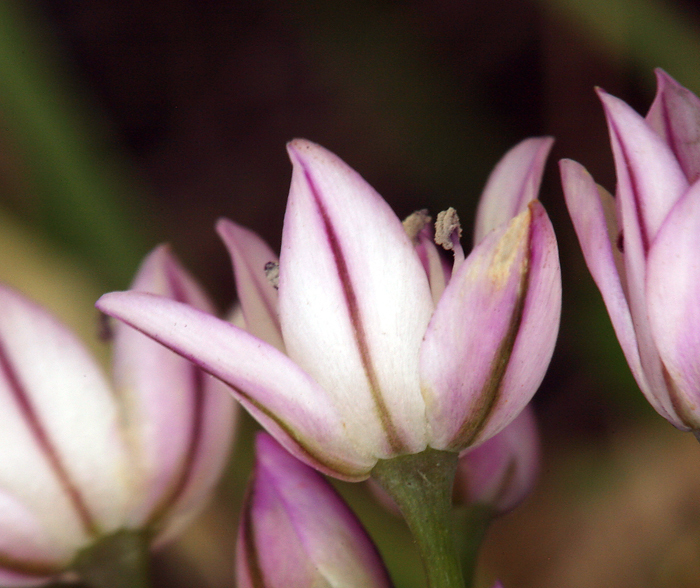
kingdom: Plantae
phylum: Tracheophyta
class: Liliopsida
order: Asparagales
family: Amaryllidaceae
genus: Allium
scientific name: Allium praecox
